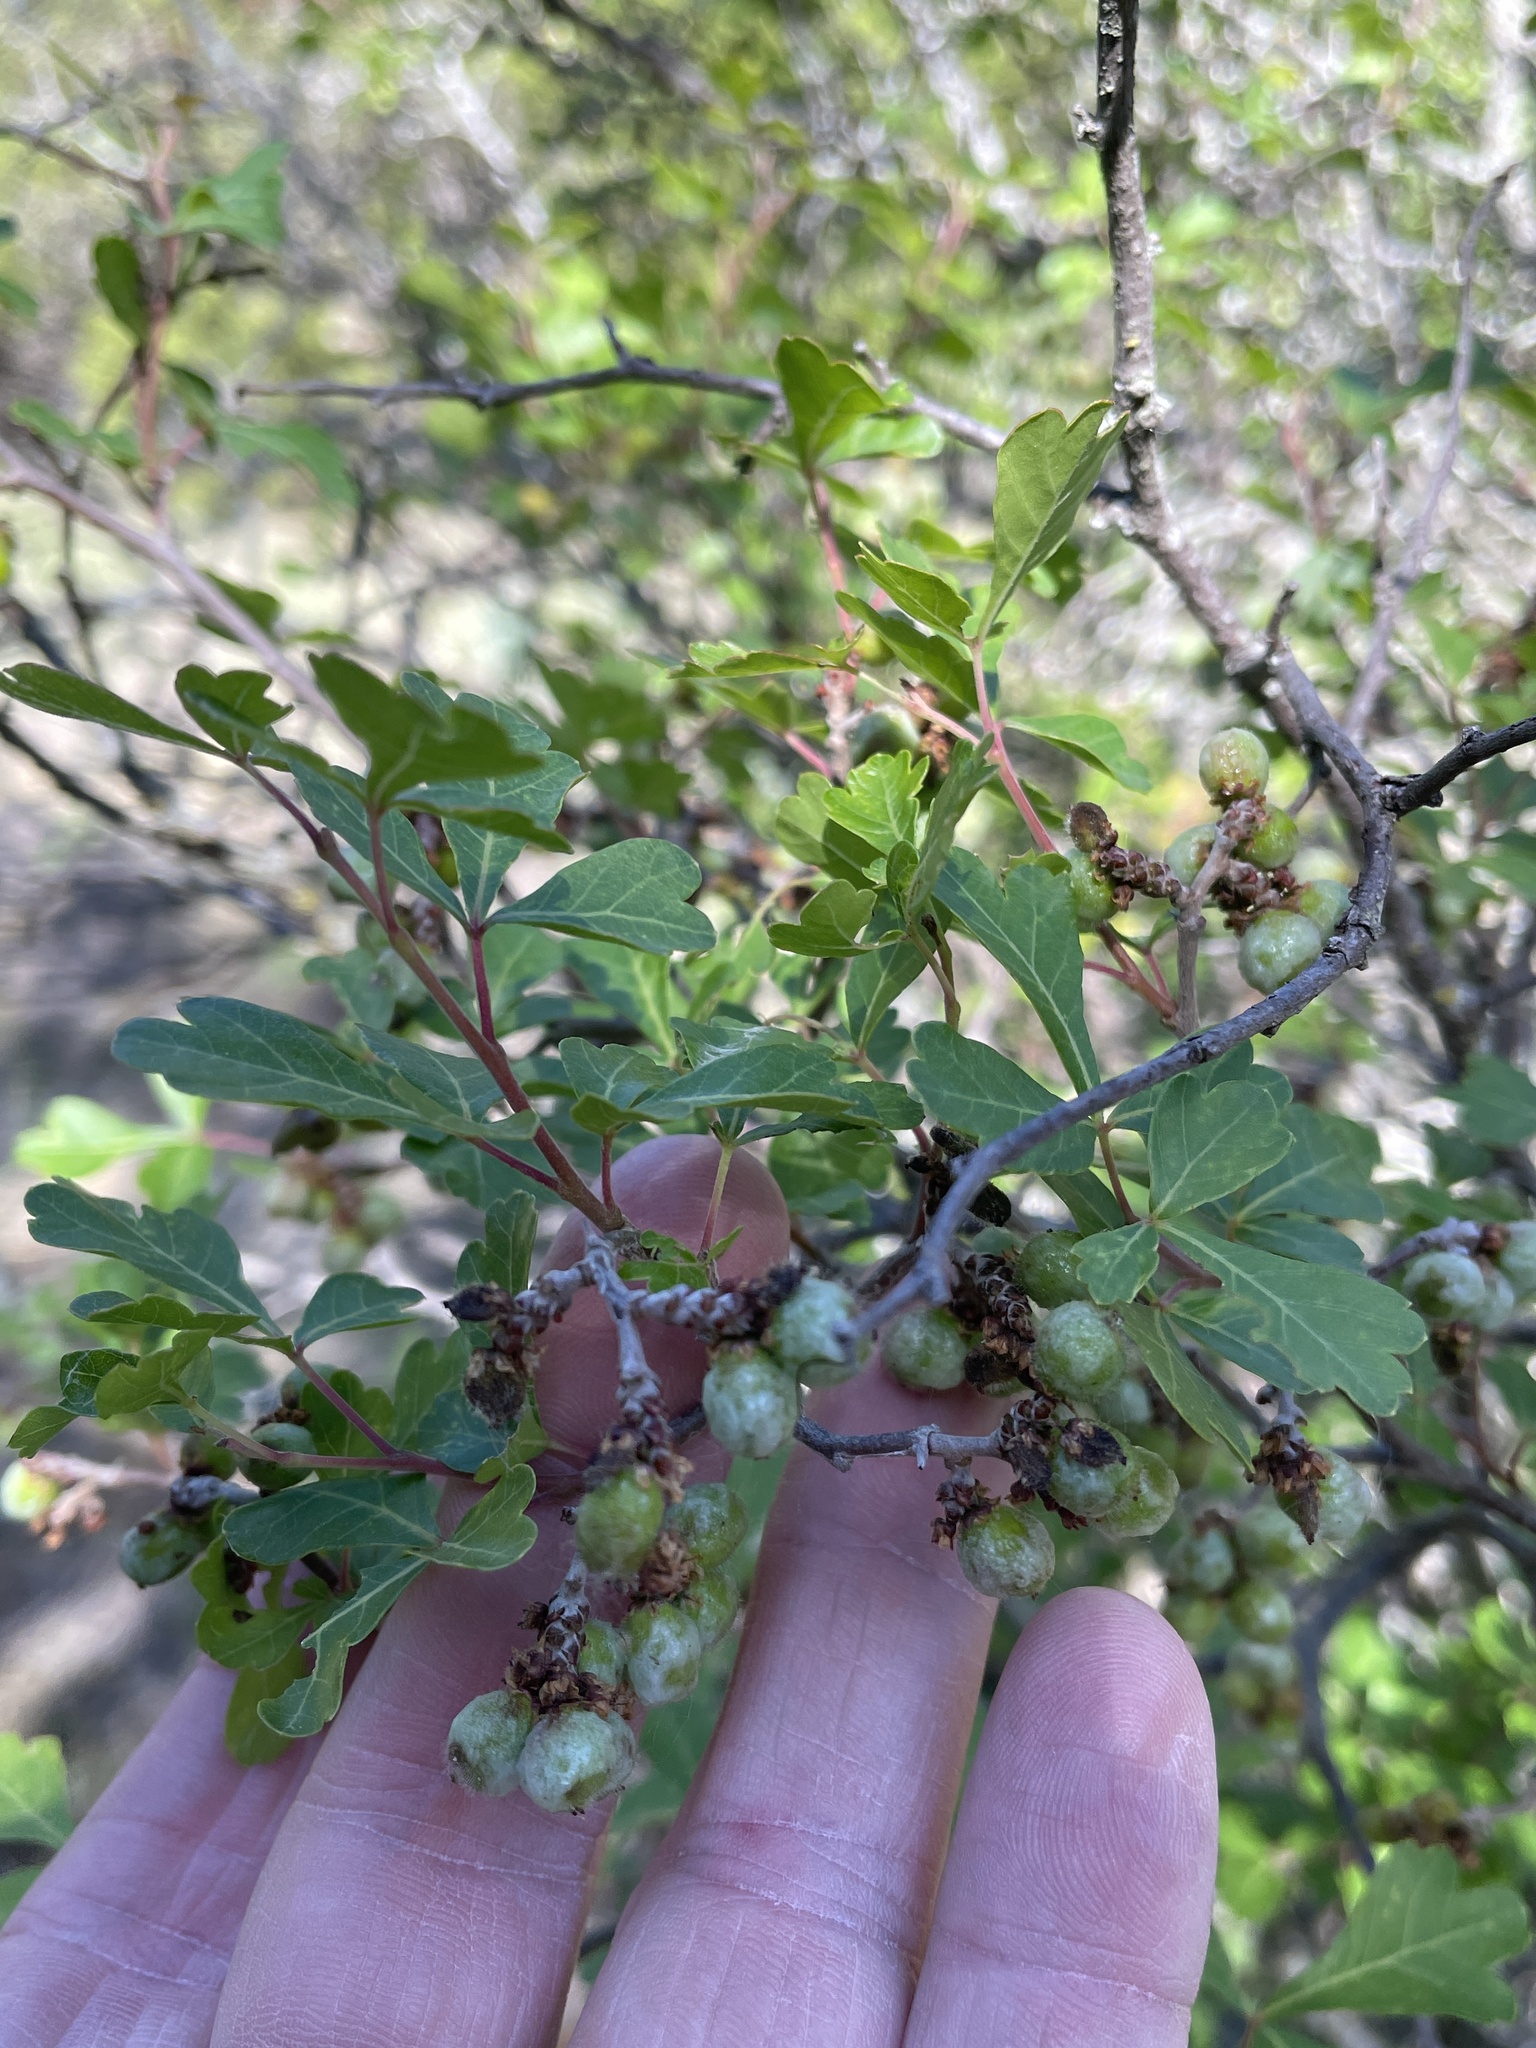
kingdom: Plantae
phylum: Tracheophyta
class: Magnoliopsida
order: Sapindales
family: Anacardiaceae
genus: Rhus
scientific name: Rhus aromatica
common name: Aromatic sumac
